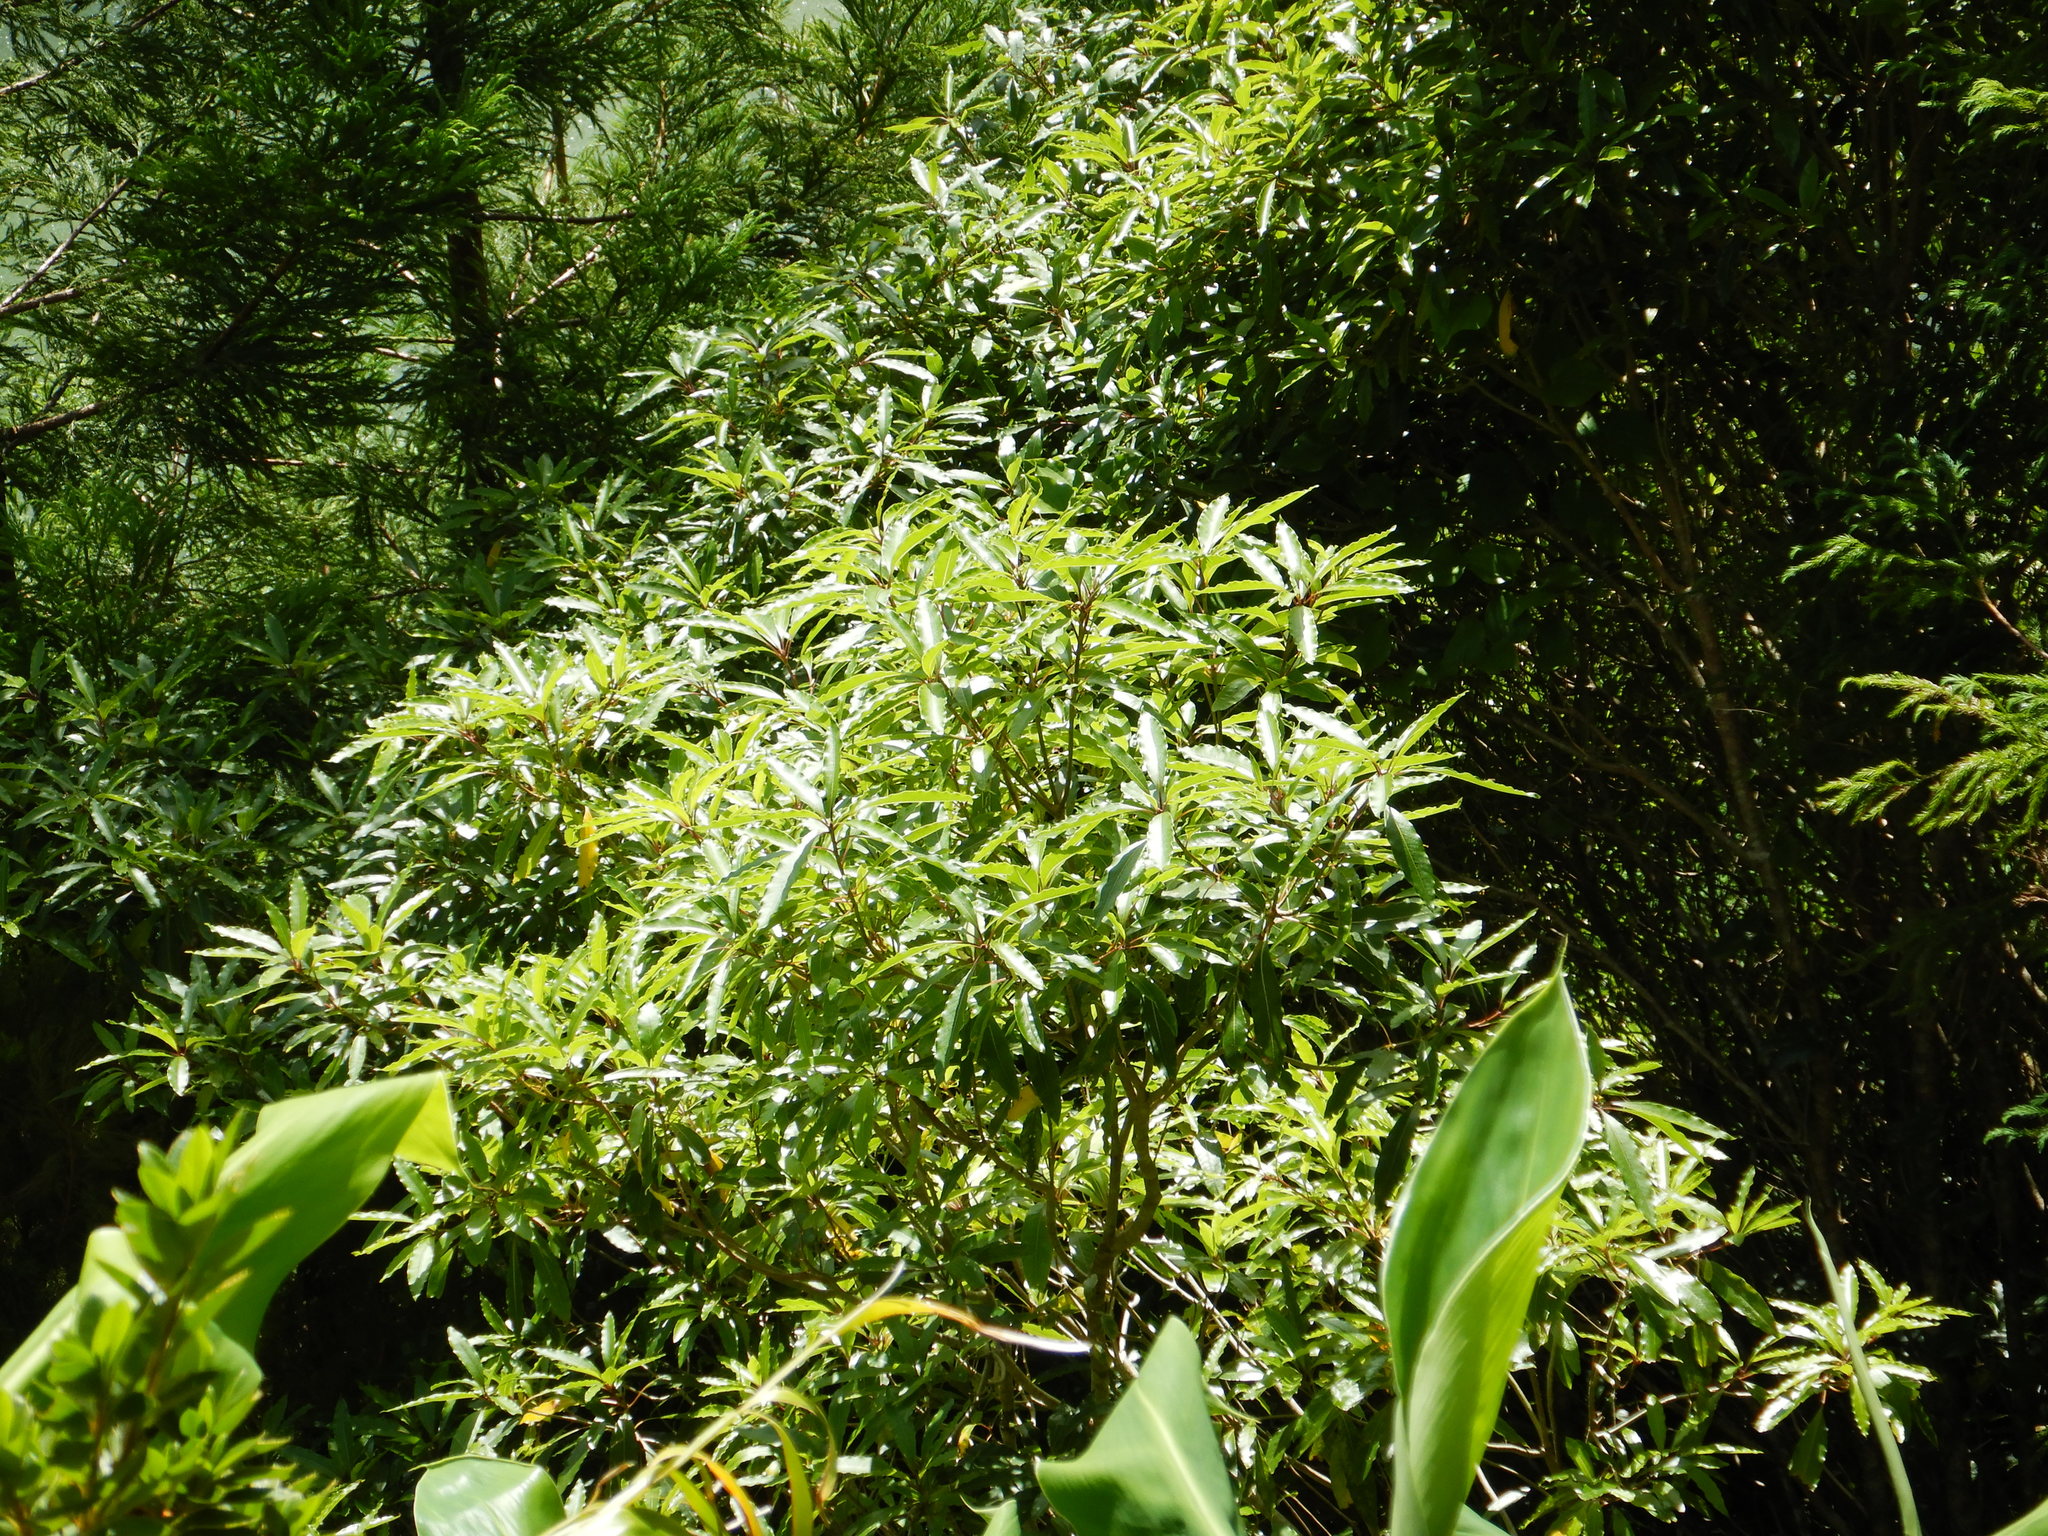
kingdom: Plantae
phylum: Tracheophyta
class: Magnoliopsida
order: Apiales
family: Pittosporaceae
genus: Pittosporum
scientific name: Pittosporum undulatum
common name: Australian cheesewood
